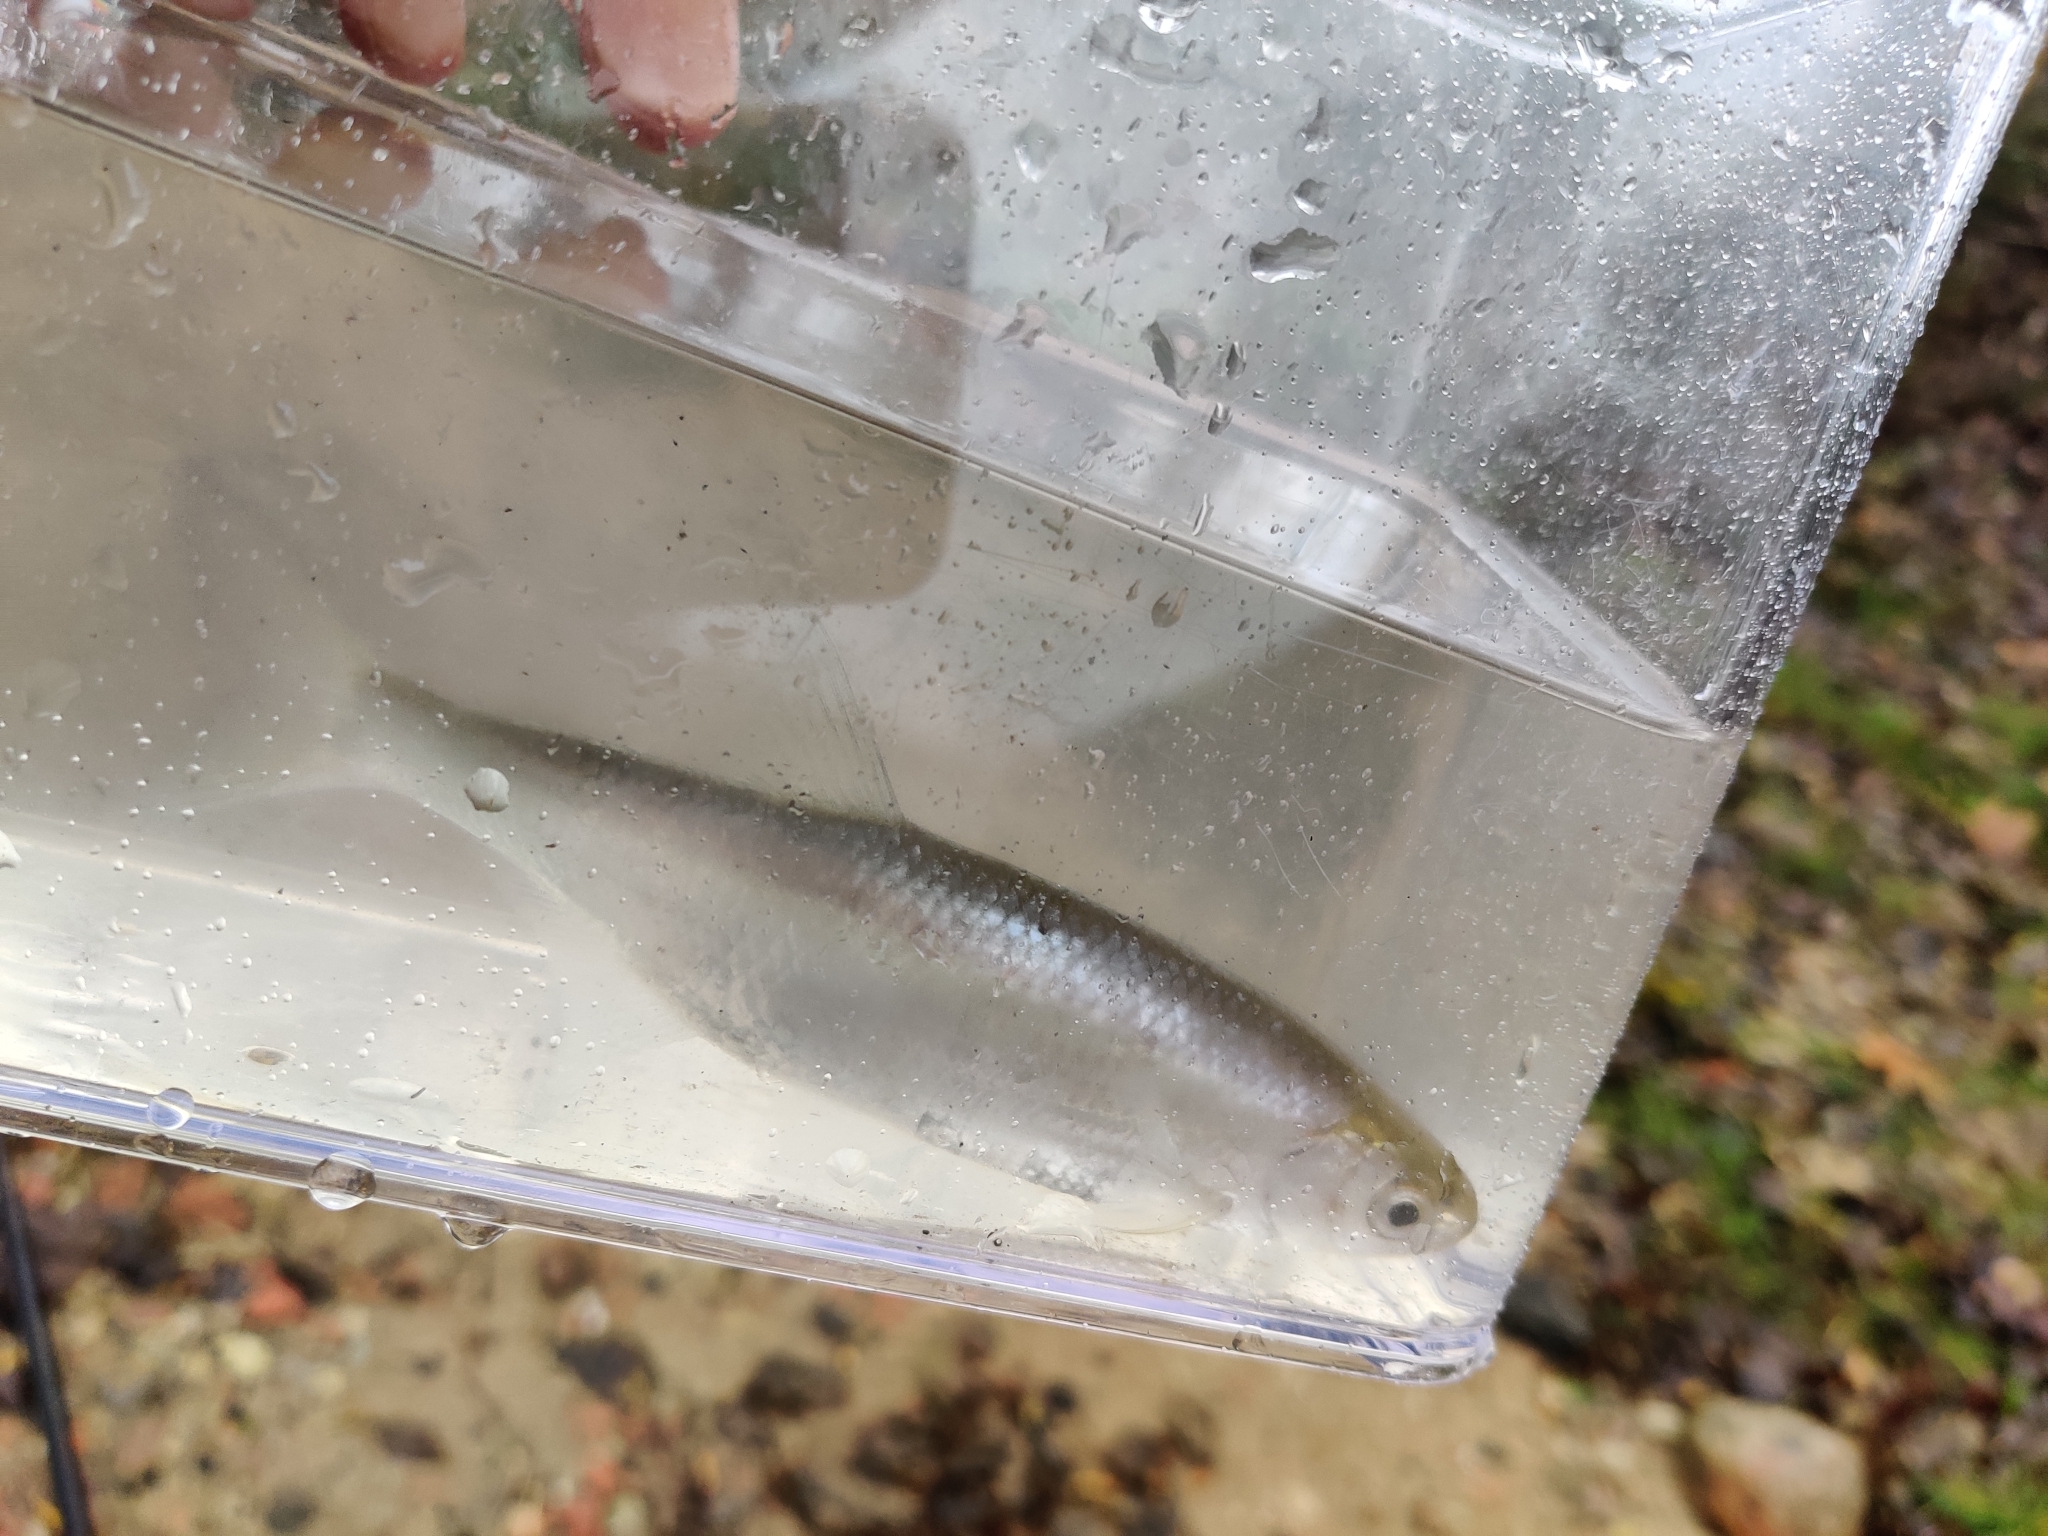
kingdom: Animalia
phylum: Chordata
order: Cypriniformes
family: Cyprinidae
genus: Alburnus
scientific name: Alburnus alburnus
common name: Bleak
